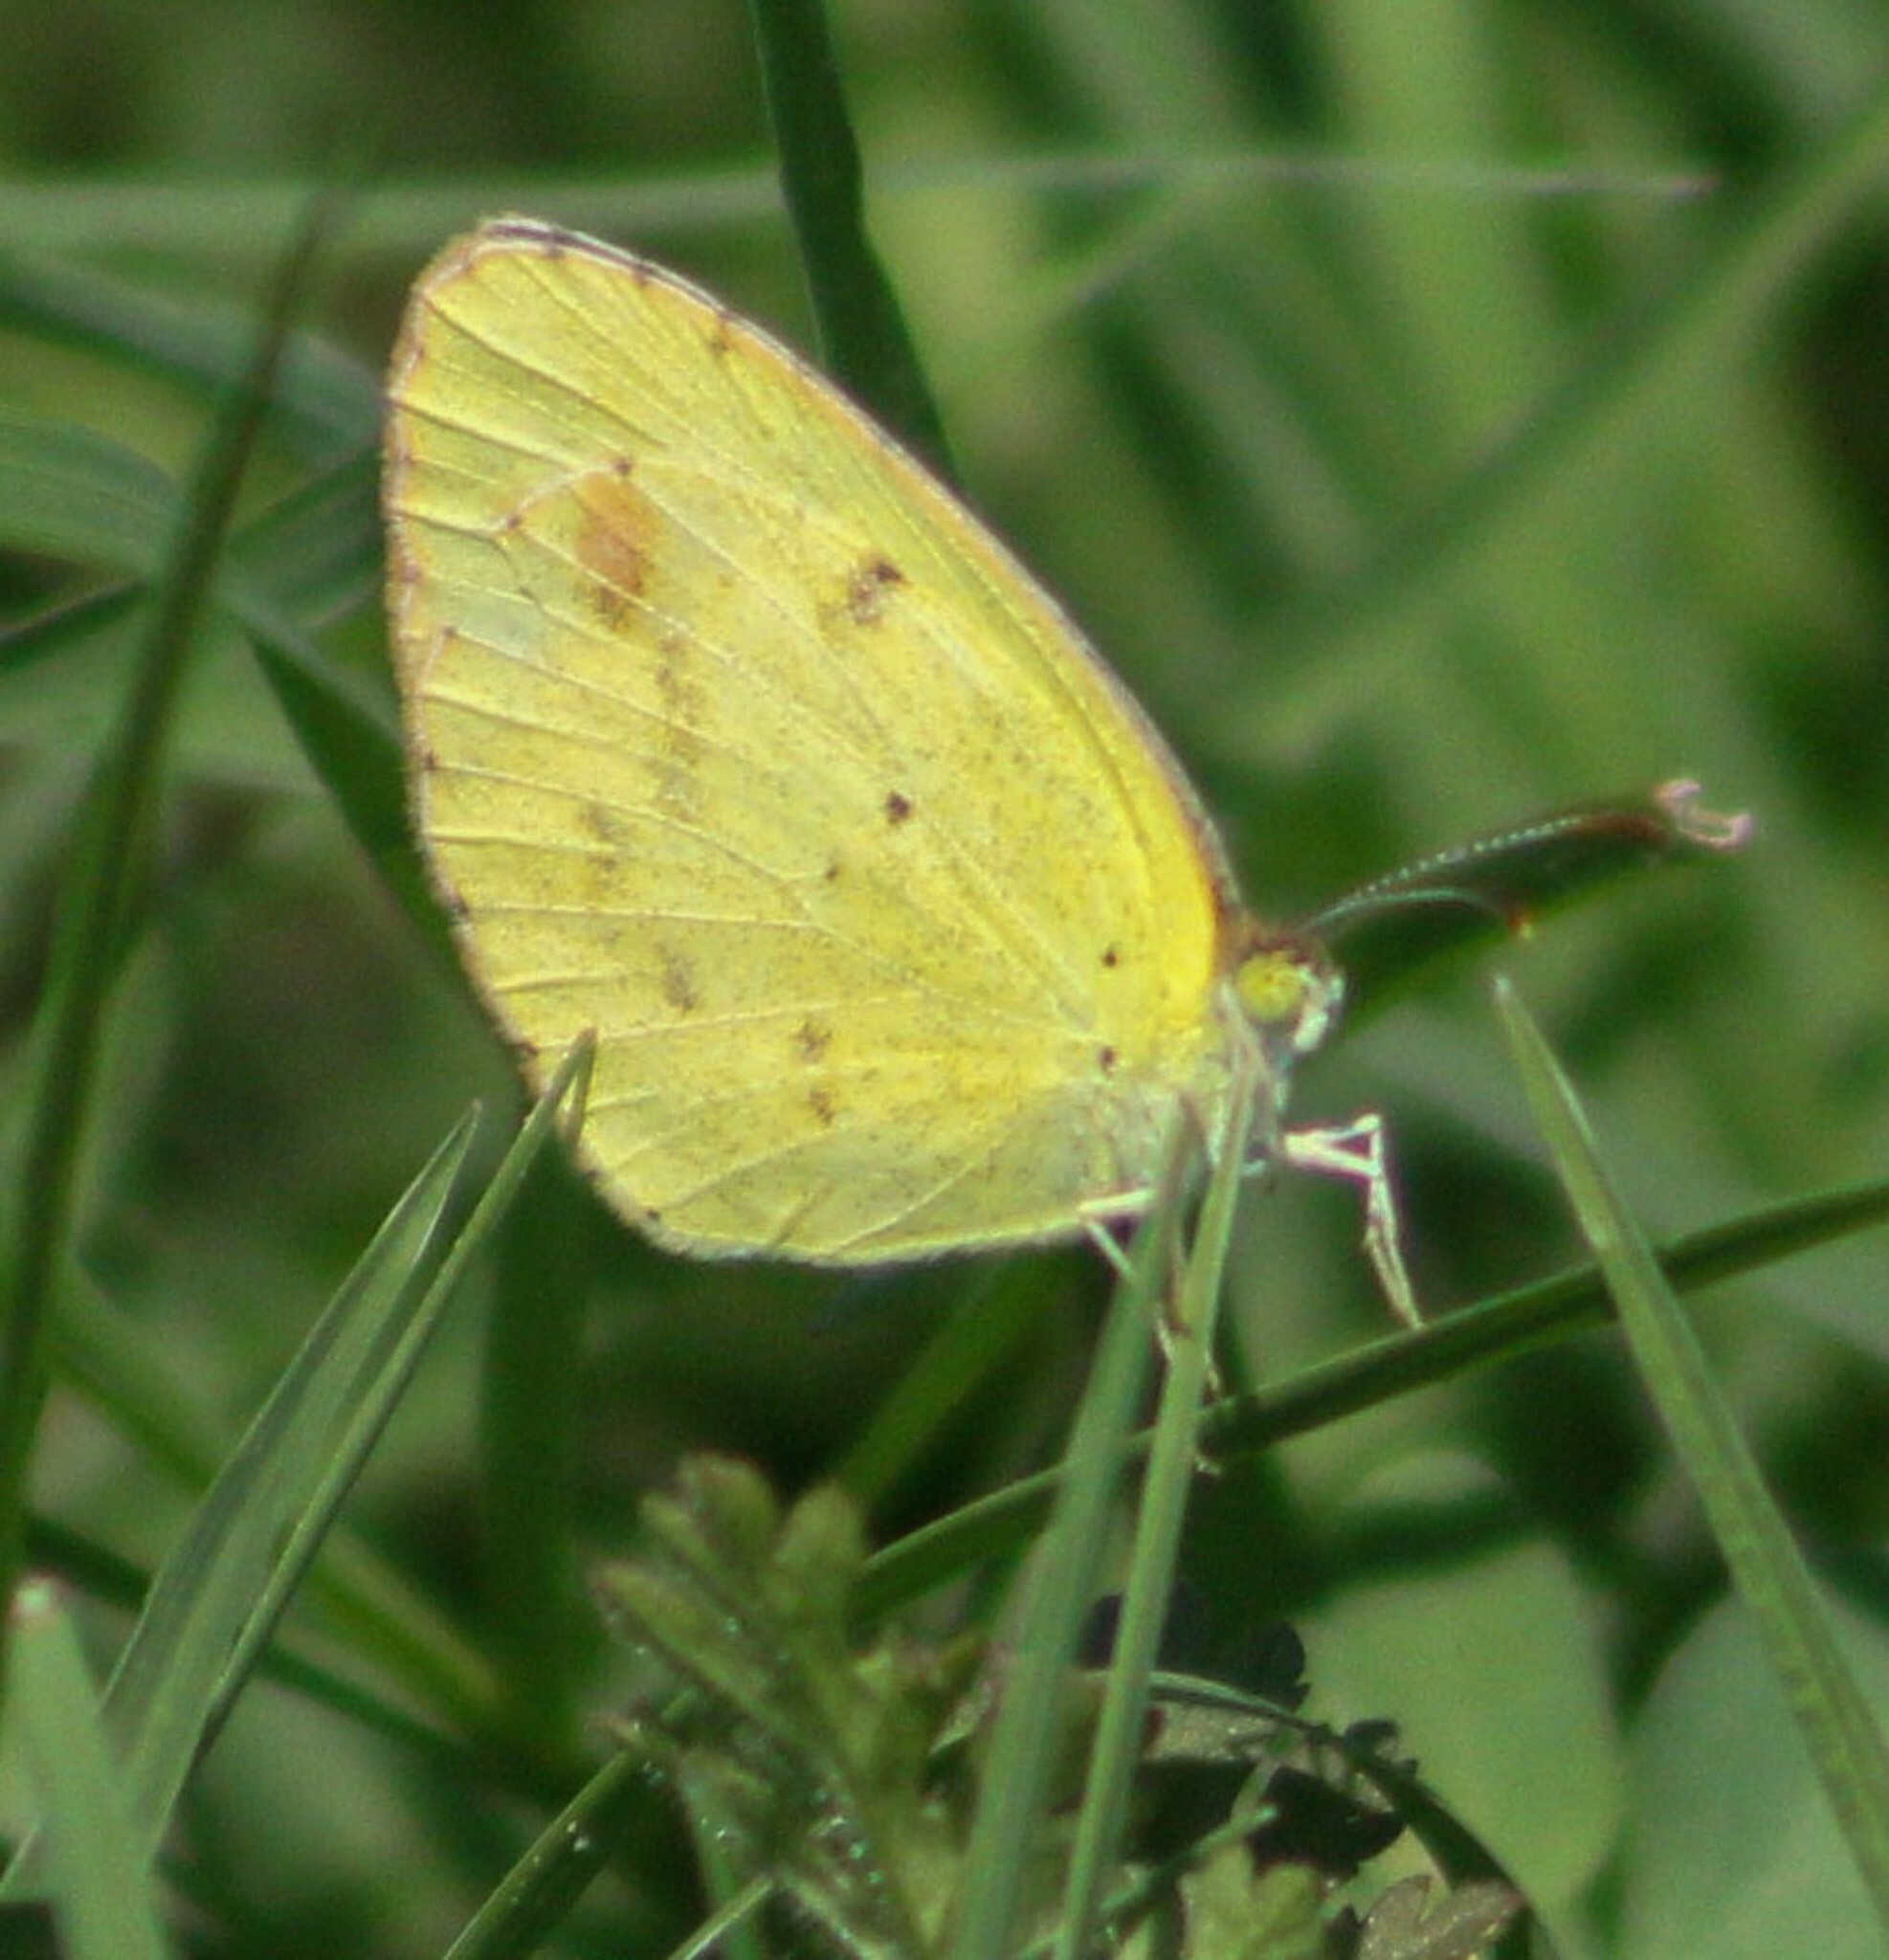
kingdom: Animalia
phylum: Arthropoda
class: Insecta
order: Lepidoptera
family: Pieridae
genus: Pyrisitia
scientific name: Pyrisitia lisa
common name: Little yellow
